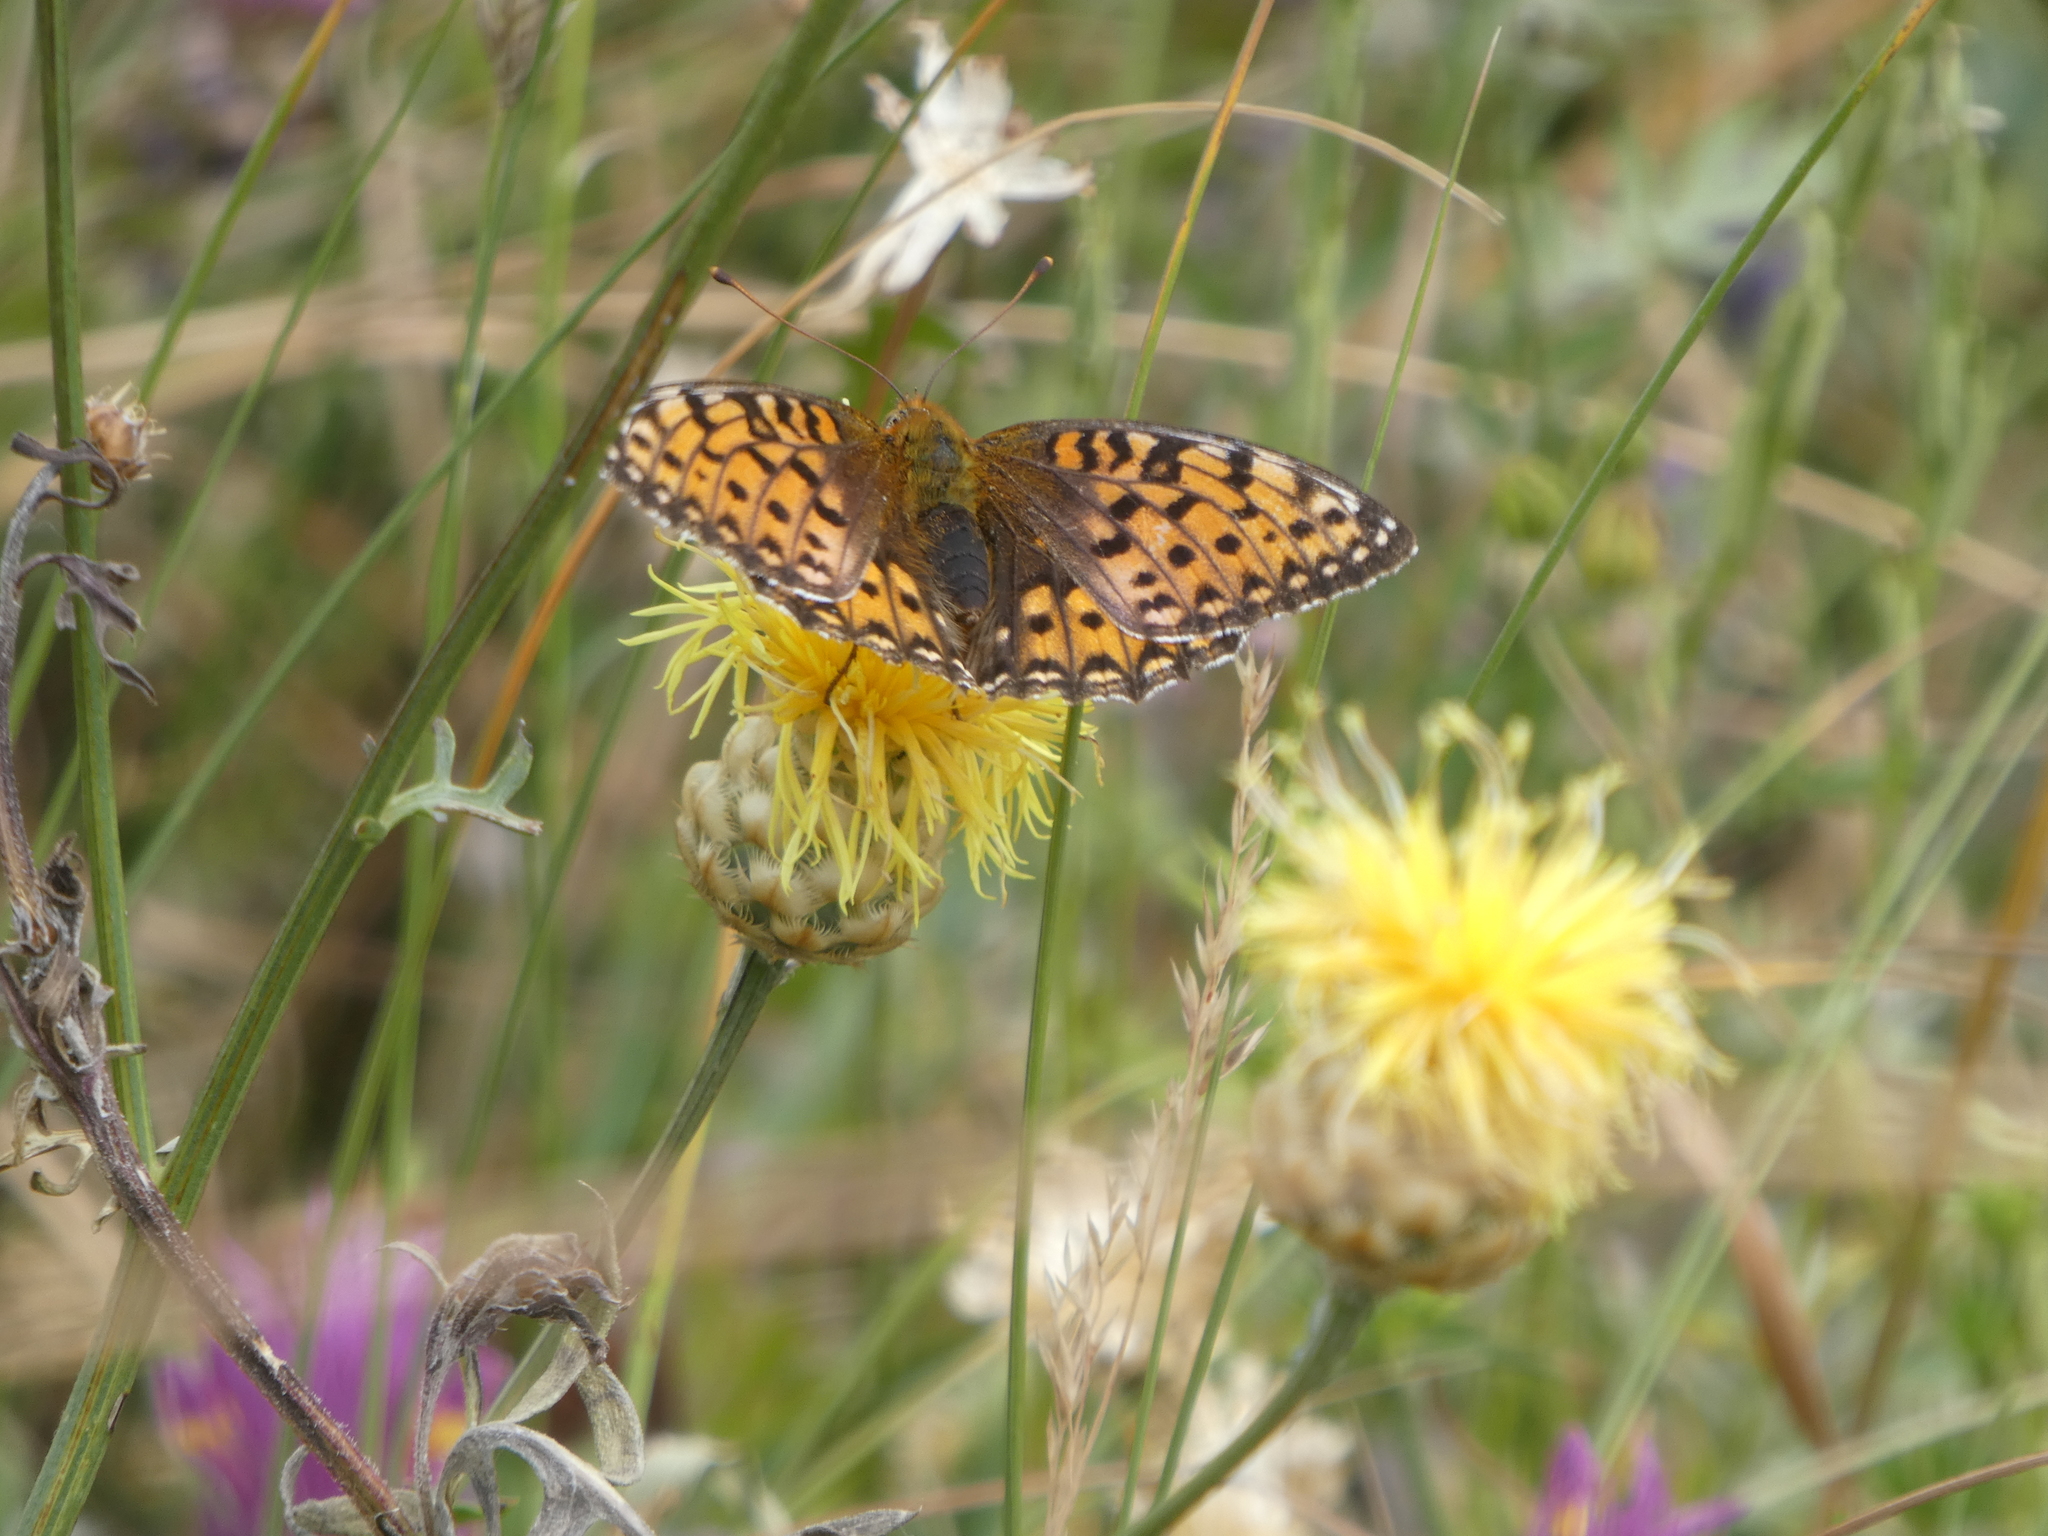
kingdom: Animalia
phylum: Arthropoda
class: Insecta
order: Lepidoptera
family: Nymphalidae
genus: Speyeria
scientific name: Speyeria aglaja
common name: Dark green fritillary
